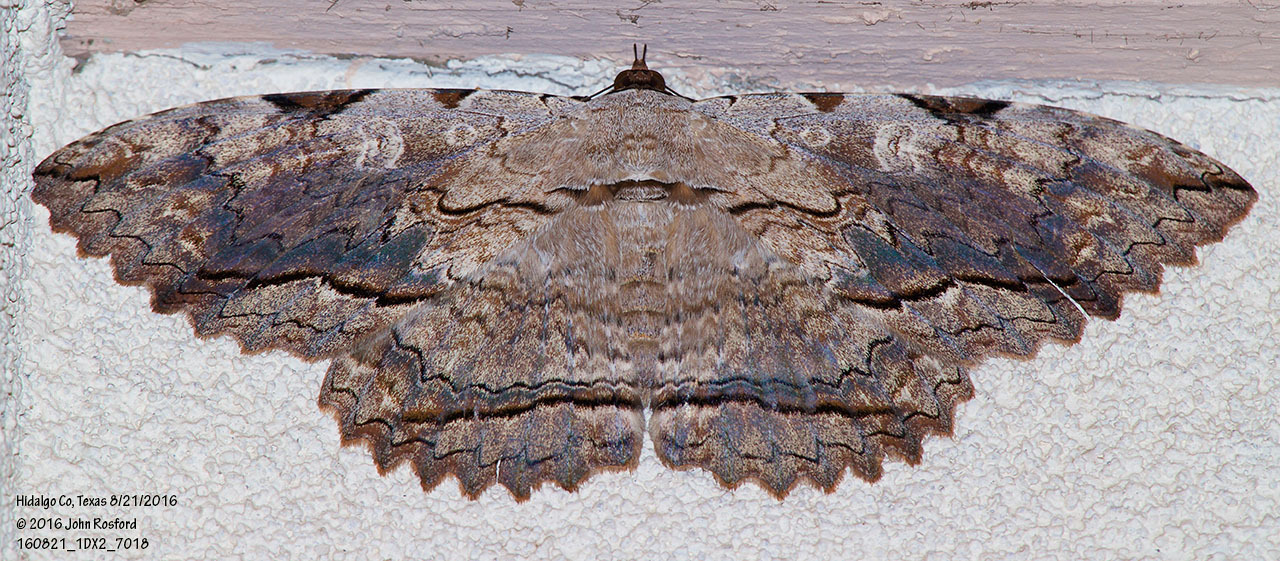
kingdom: Animalia
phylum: Arthropoda
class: Insecta
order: Lepidoptera
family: Erebidae
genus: Thysania
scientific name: Thysania zenobia
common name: Owl moth
